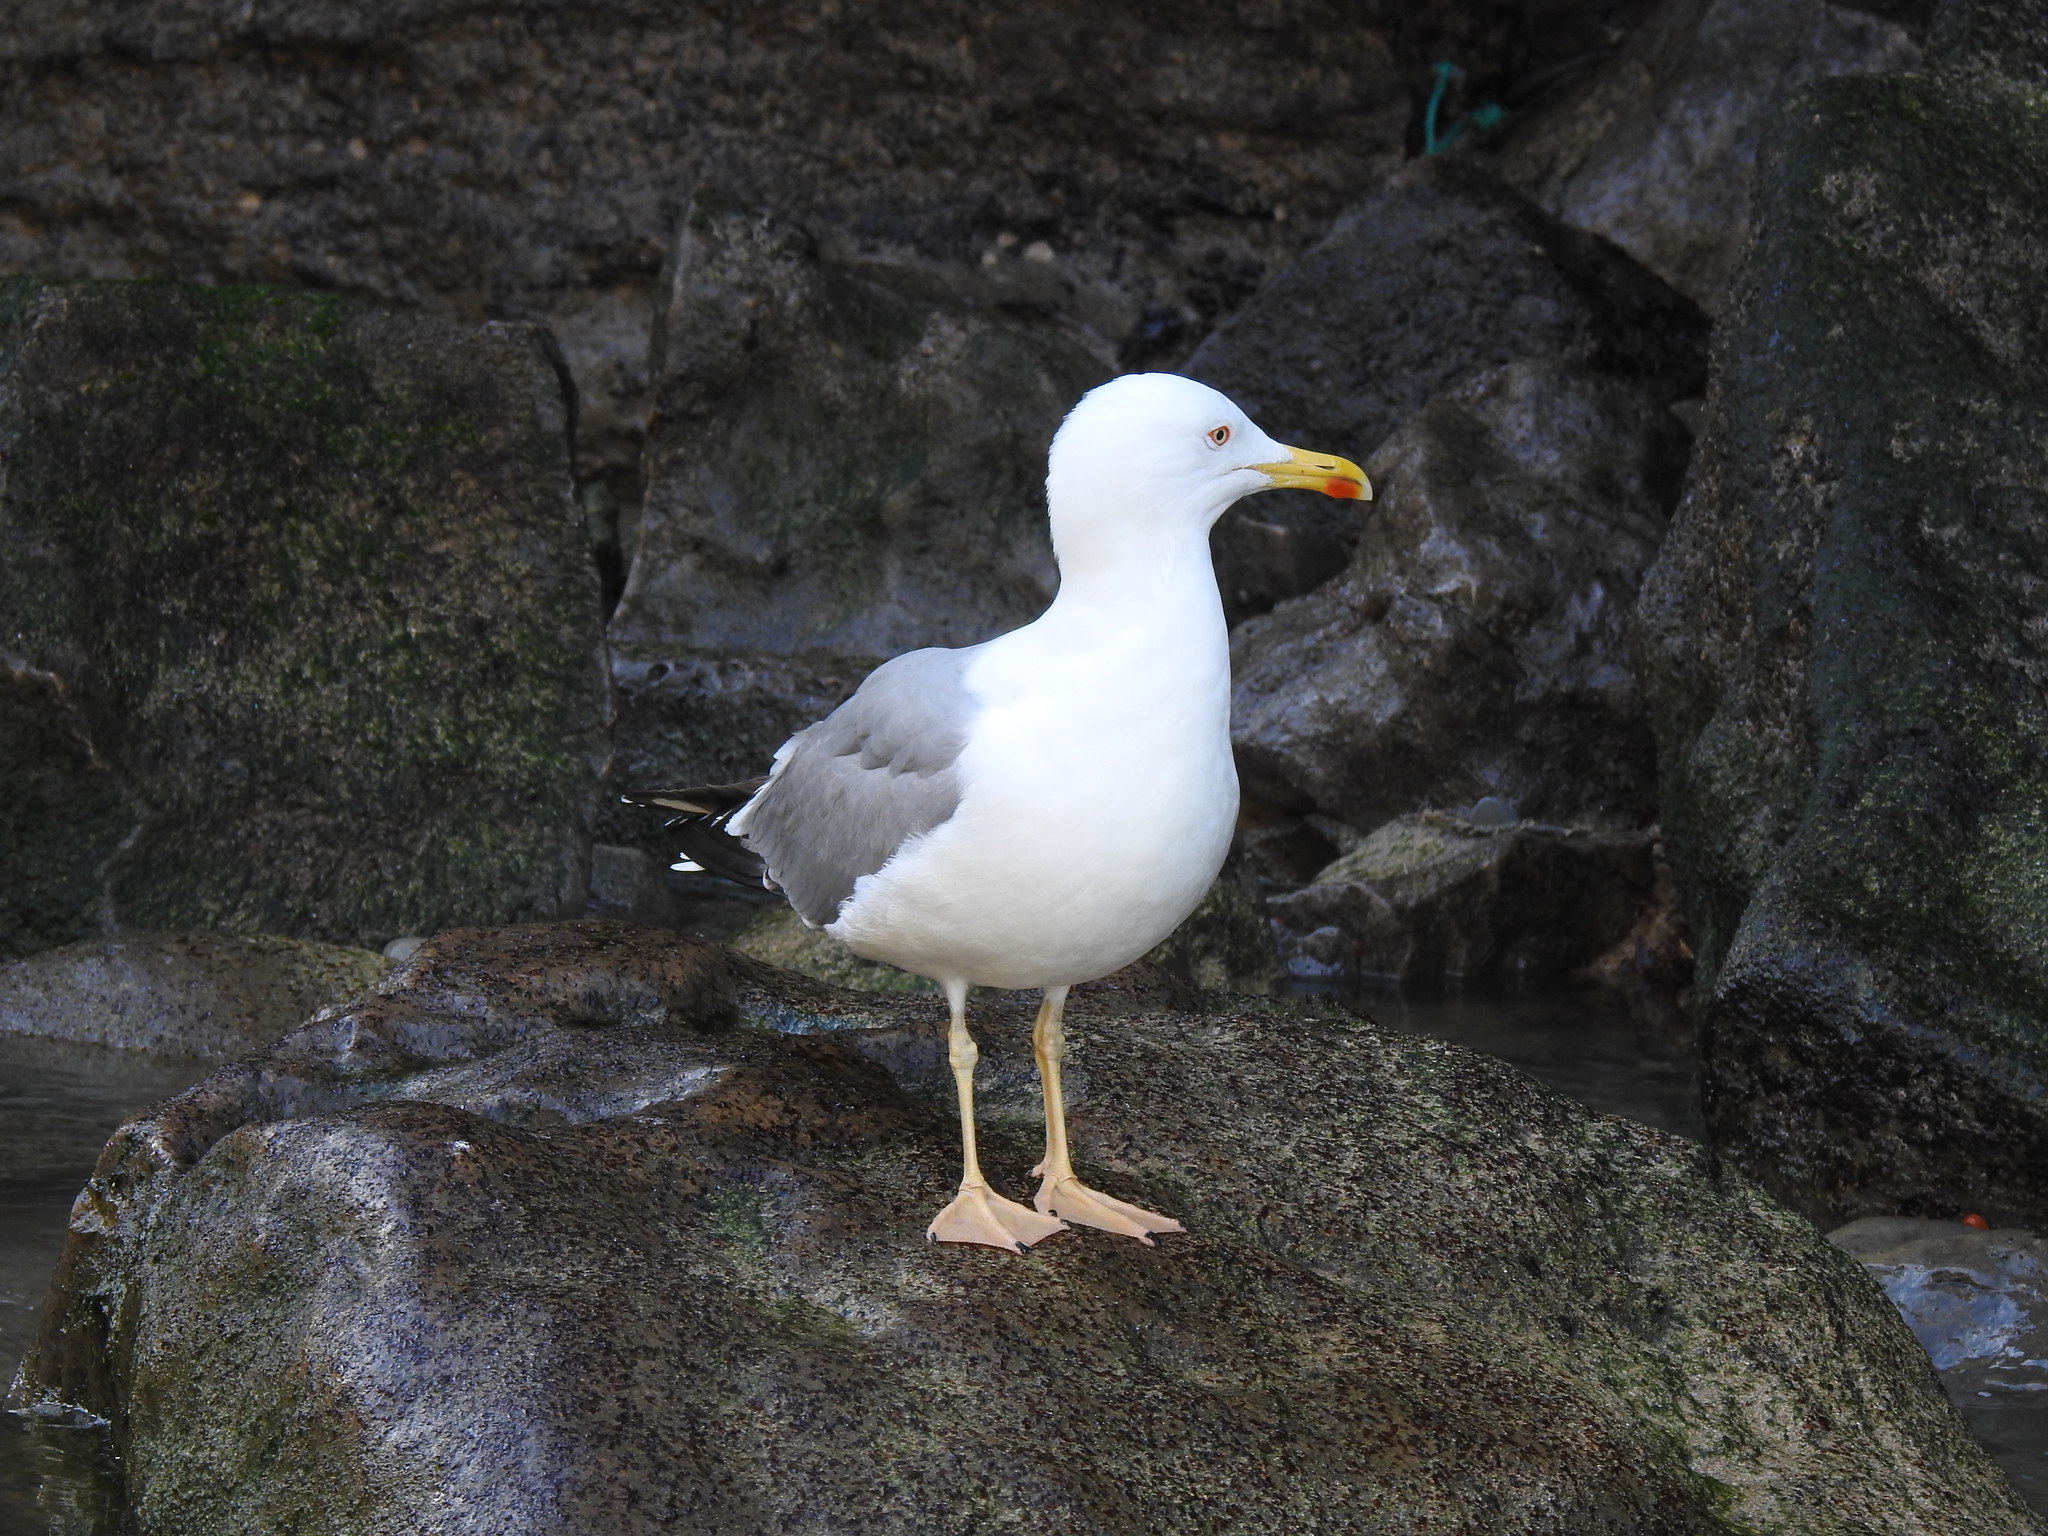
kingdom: Animalia
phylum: Chordata
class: Aves
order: Charadriiformes
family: Laridae
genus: Larus
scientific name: Larus michahellis
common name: Yellow-legged gull
